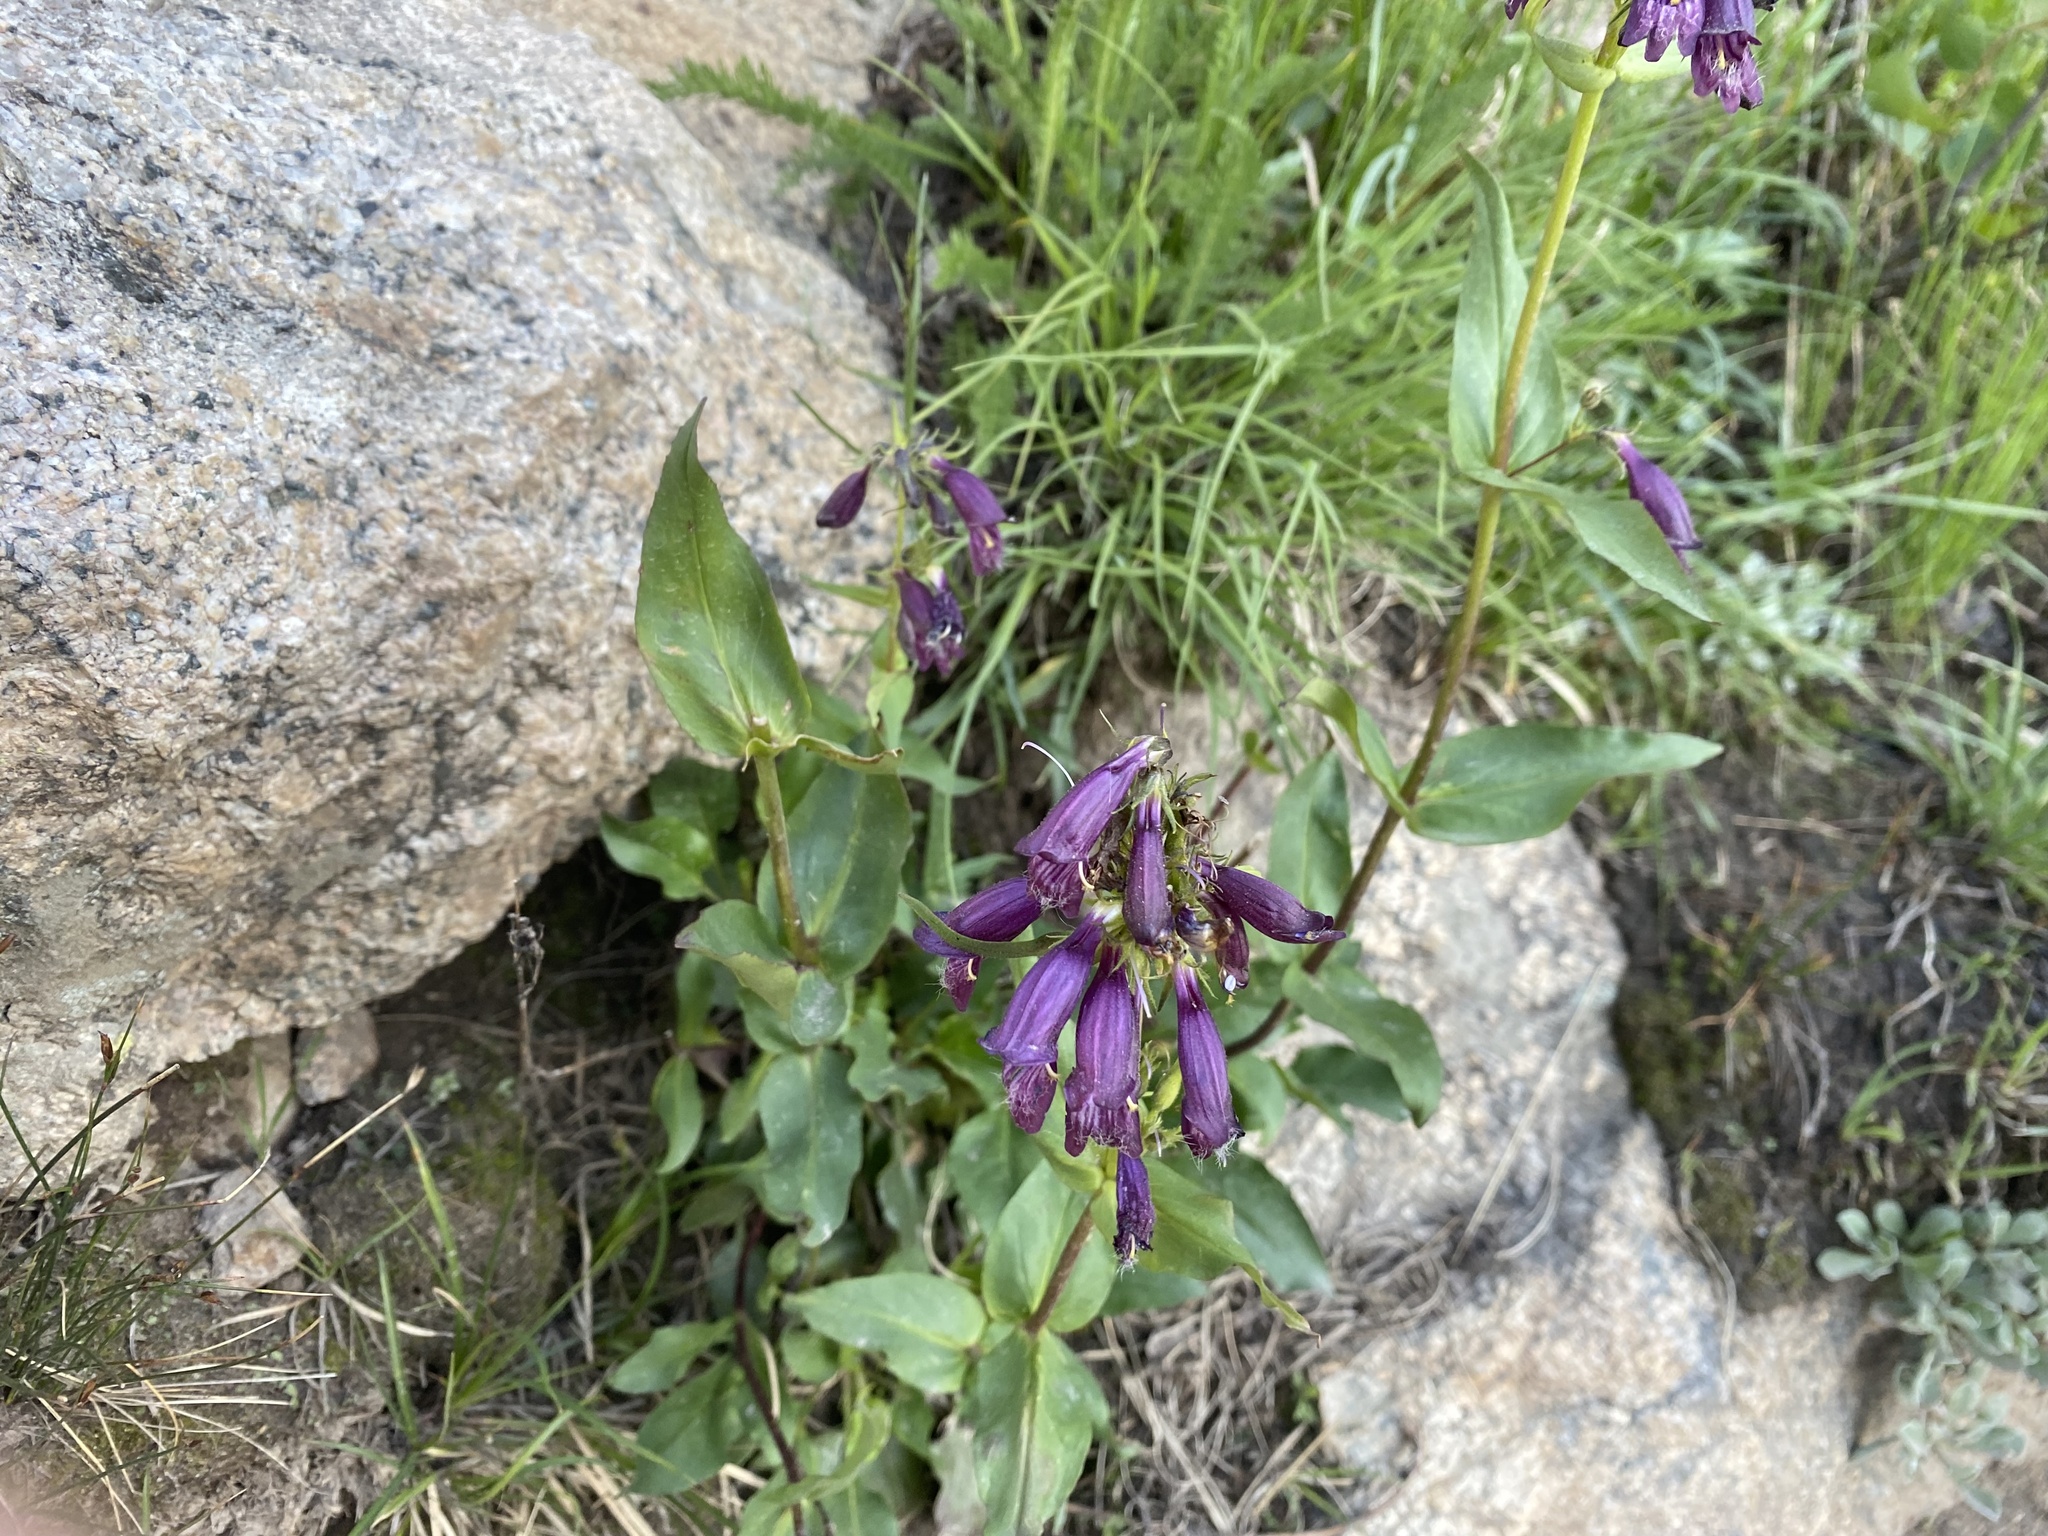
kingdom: Plantae
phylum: Tracheophyta
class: Magnoliopsida
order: Lamiales
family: Plantaginaceae
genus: Penstemon
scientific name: Penstemon whippleanus
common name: Whipple's penstemon
